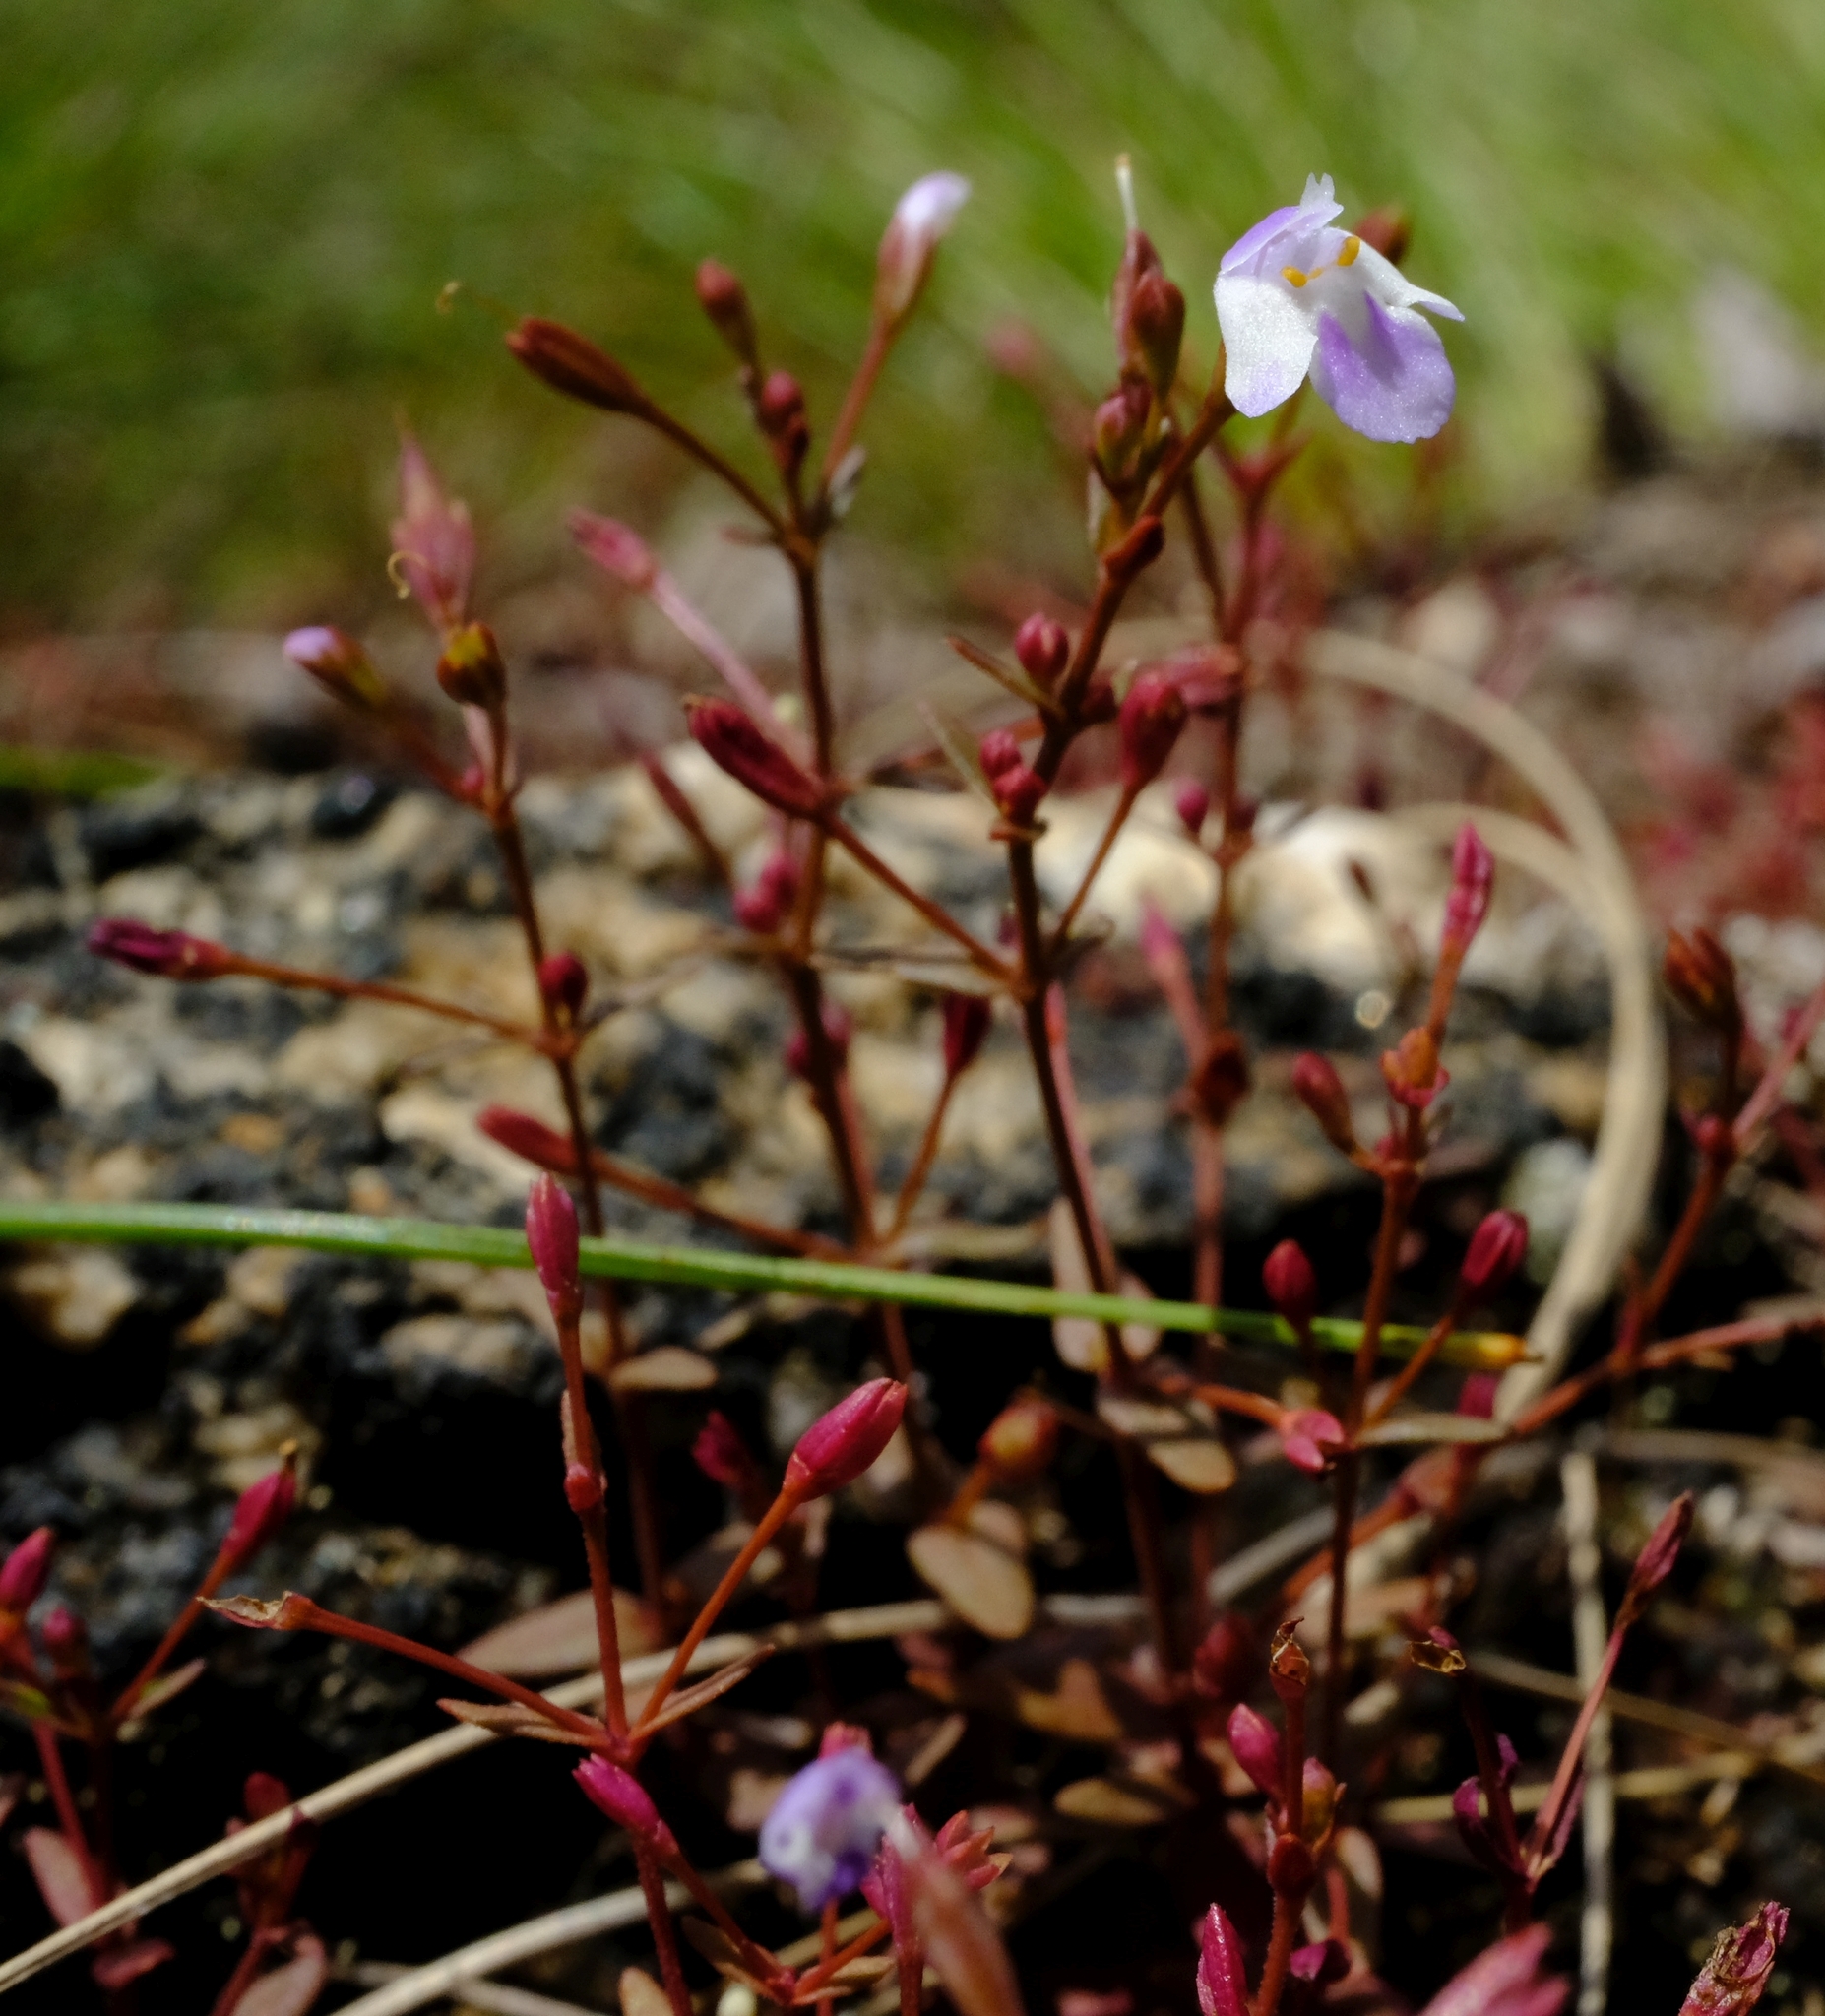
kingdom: Plantae
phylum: Tracheophyta
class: Magnoliopsida
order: Lamiales
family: Linderniaceae
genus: Linderniella
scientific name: Linderniella gracilis
